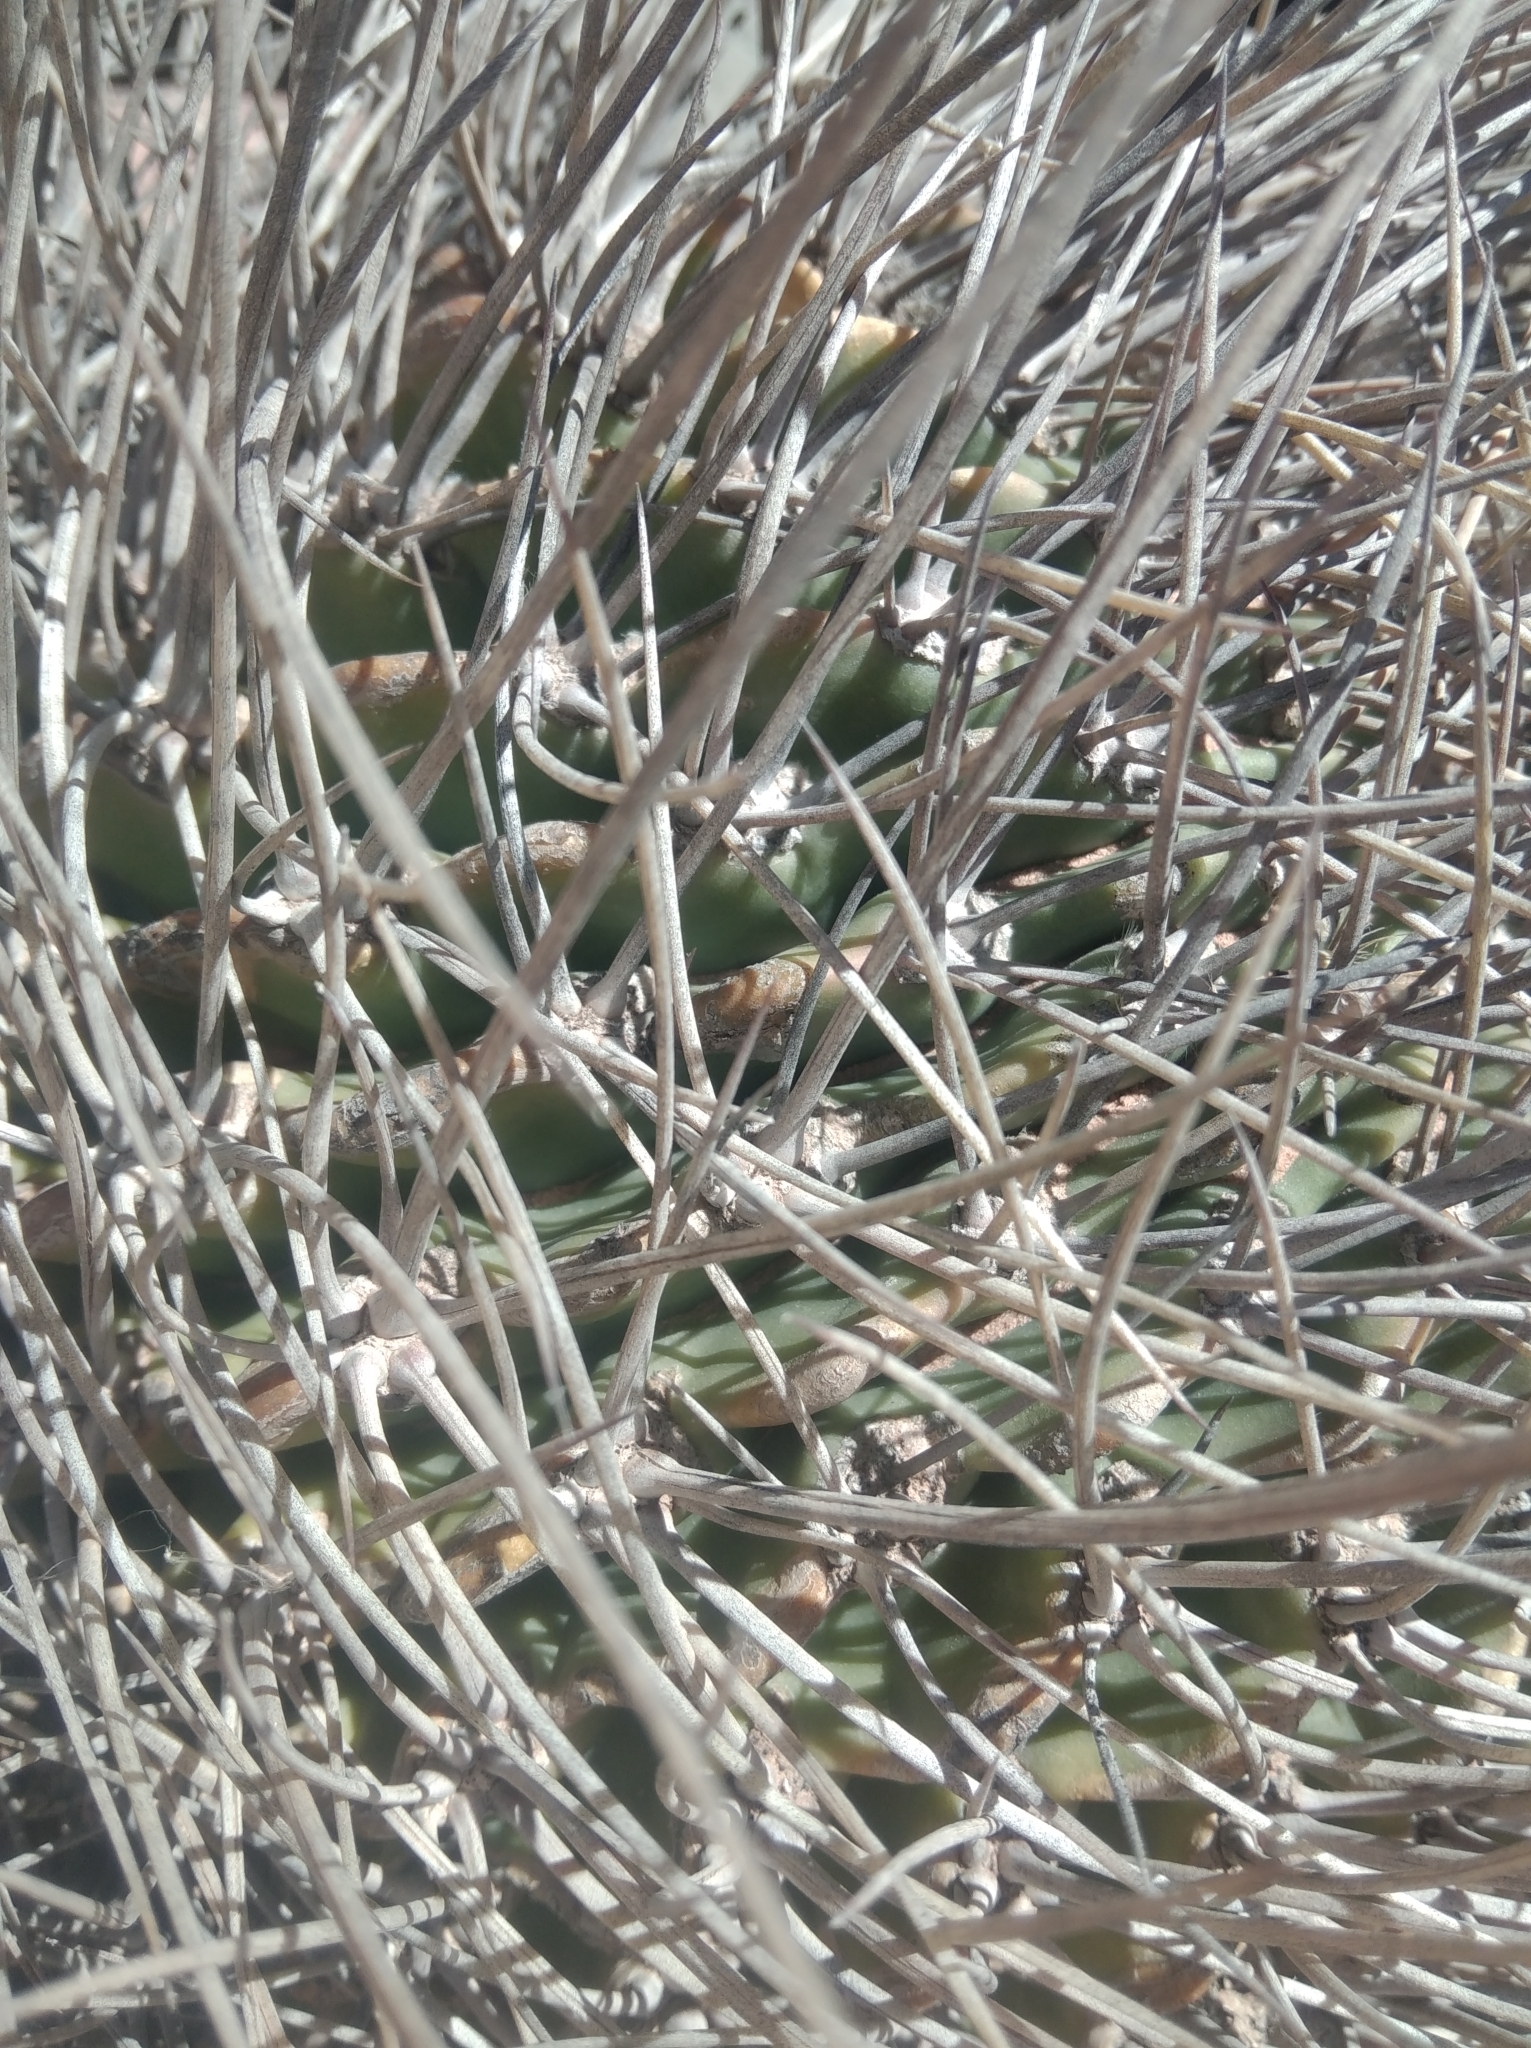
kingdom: Plantae
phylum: Tracheophyta
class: Magnoliopsida
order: Caryophyllales
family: Cactaceae
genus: Lobivia
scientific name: Lobivia ferox
